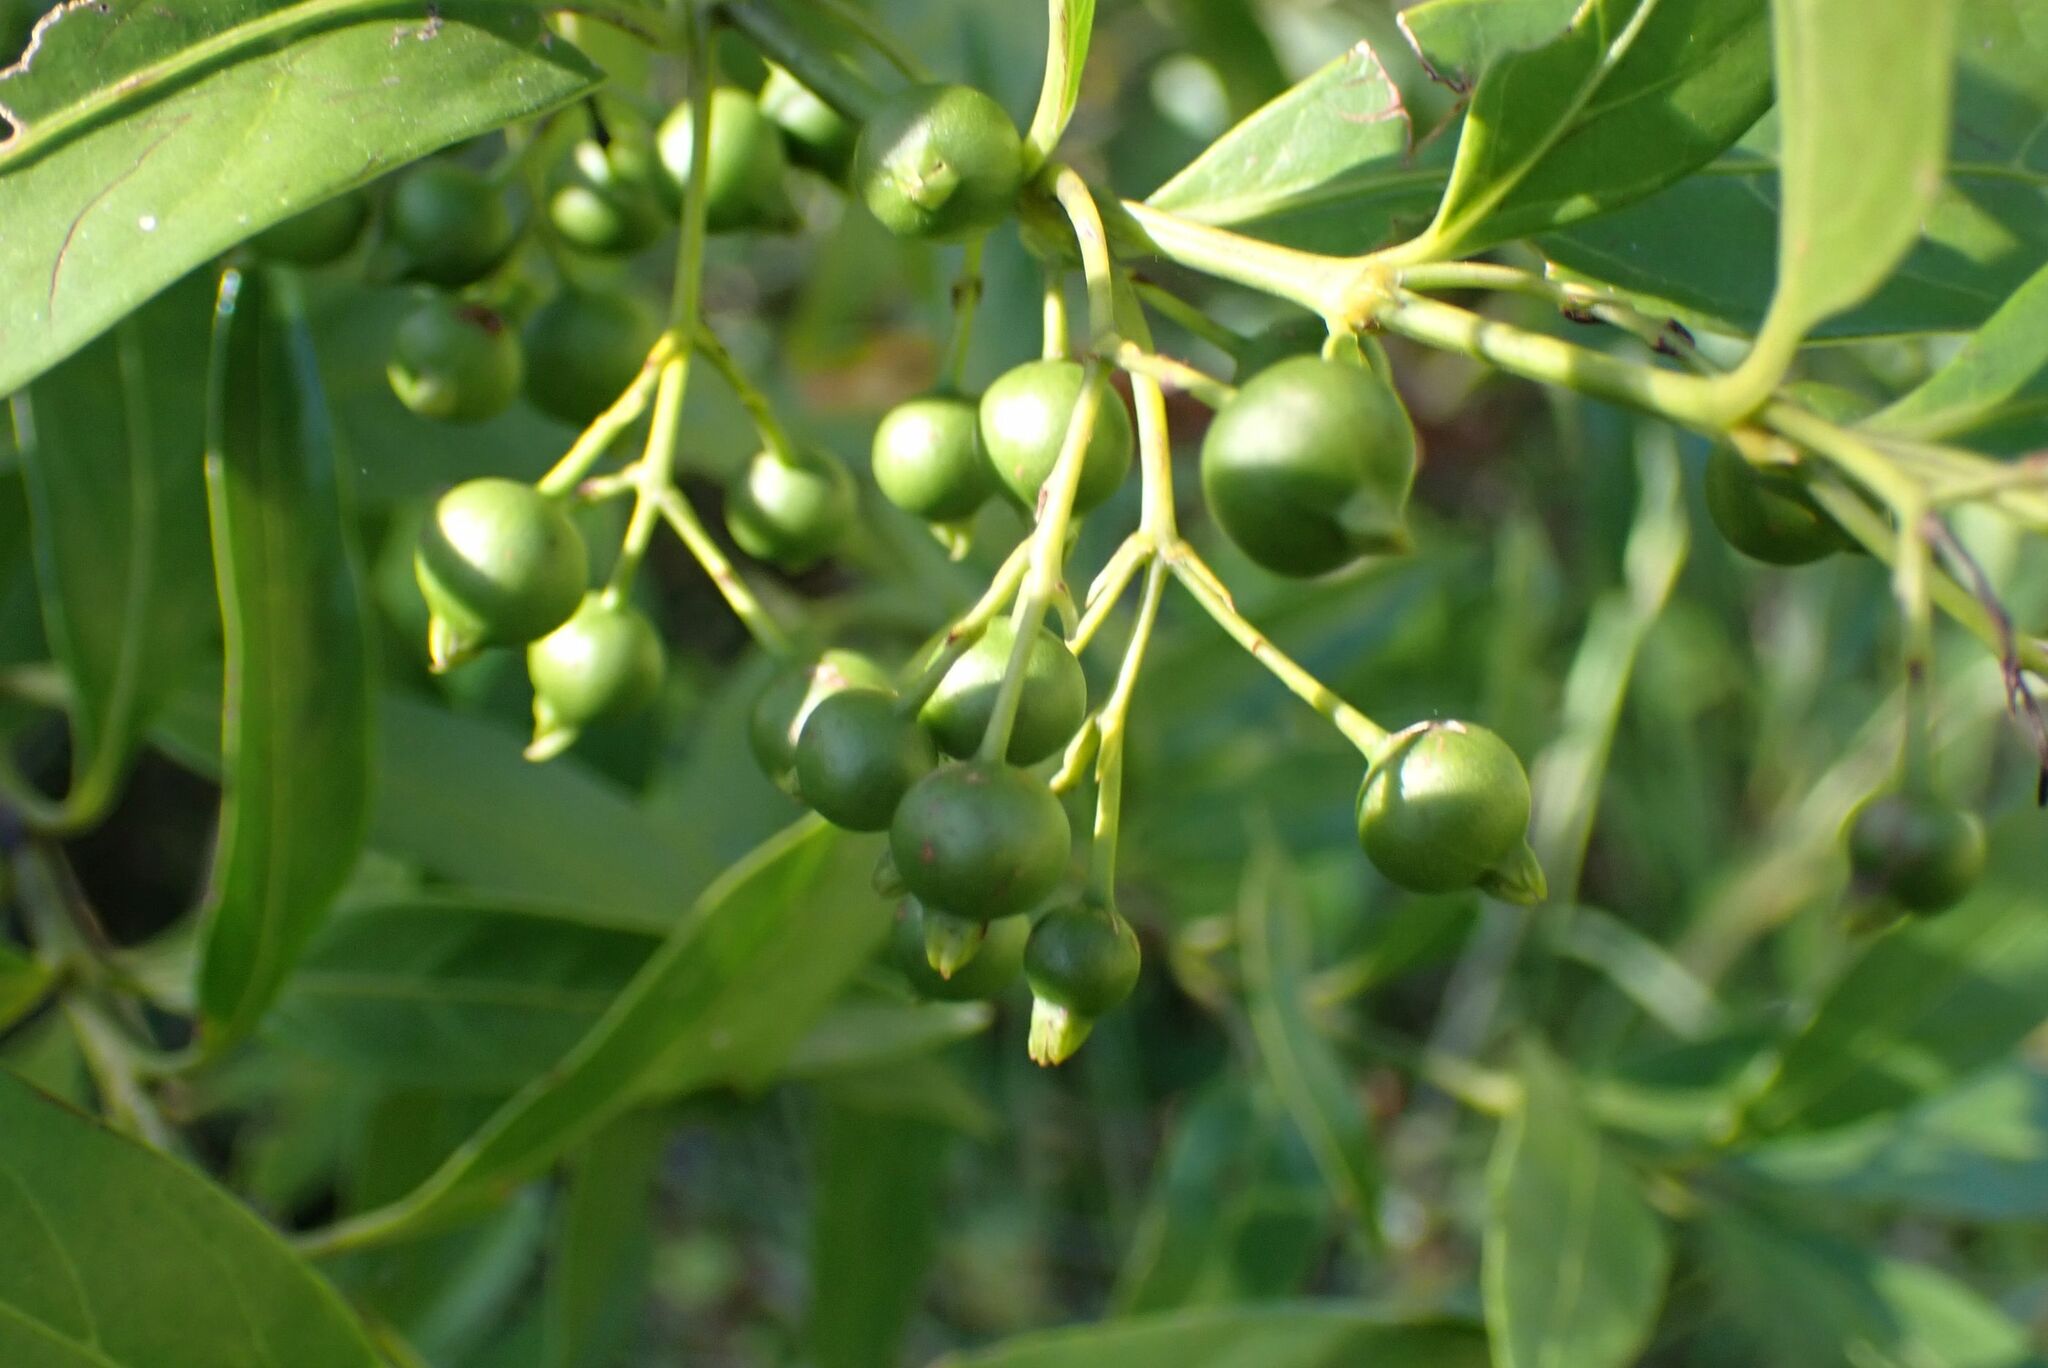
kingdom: Plantae
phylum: Tracheophyta
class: Magnoliopsida
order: Gentianales
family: Rubiaceae
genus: Kraussia
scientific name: Kraussia floribunda
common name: Rhino-coffee
